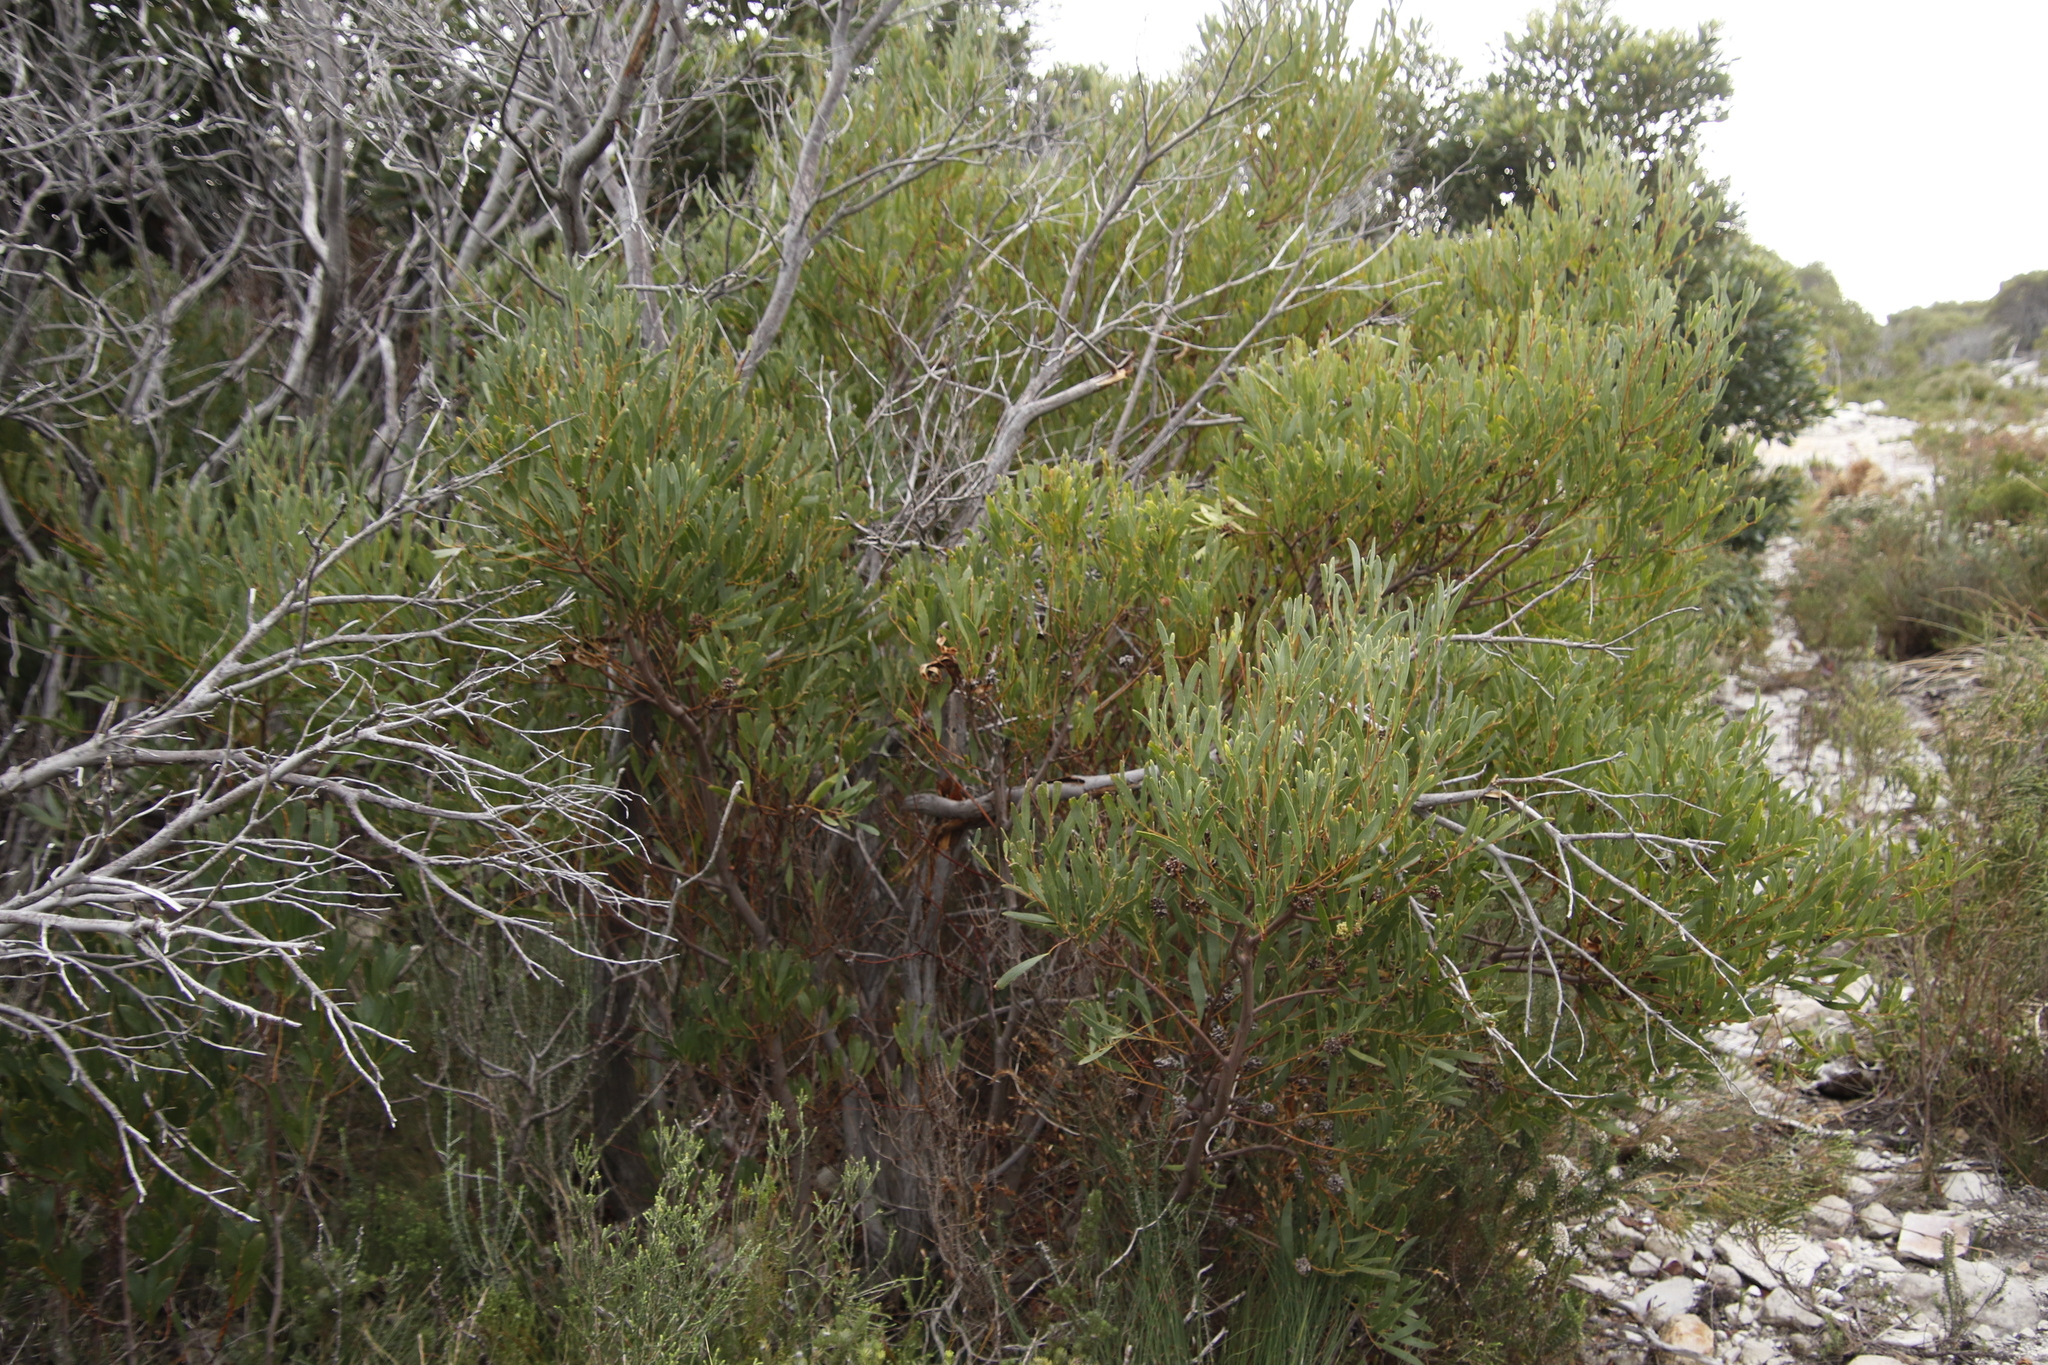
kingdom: Plantae
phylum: Tracheophyta
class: Magnoliopsida
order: Fabales
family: Fabaceae
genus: Acacia
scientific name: Acacia cyclops
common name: Coastal wattle
